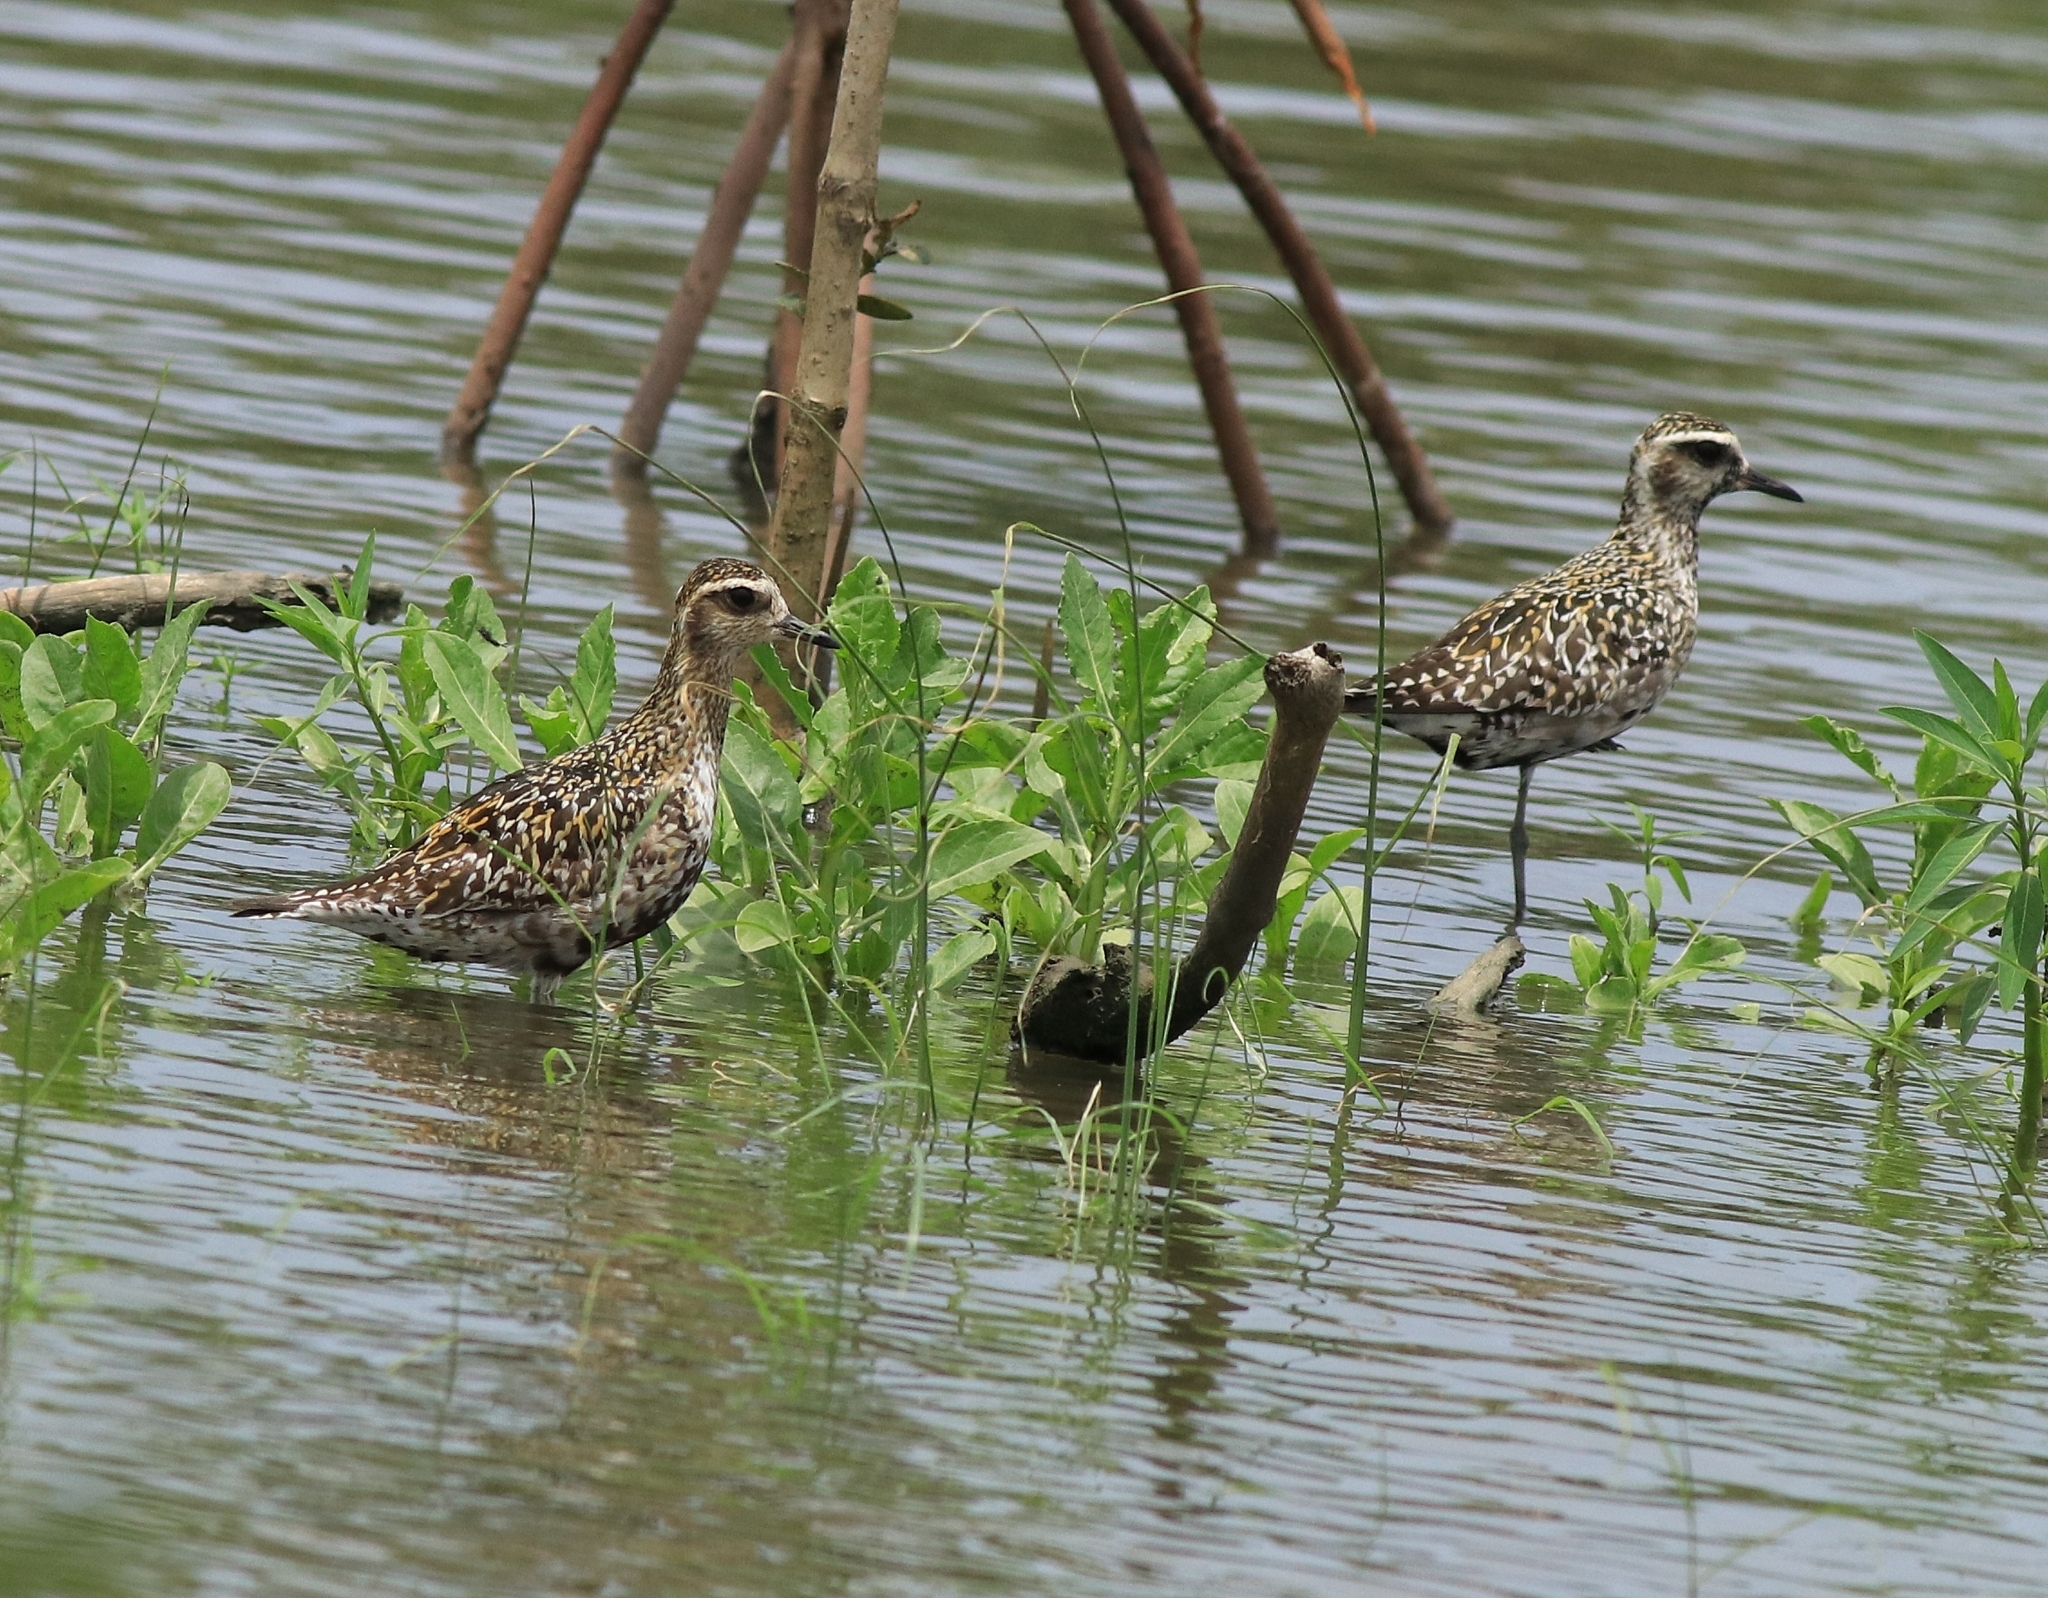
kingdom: Animalia
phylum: Chordata
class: Aves
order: Charadriiformes
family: Charadriidae
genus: Pluvialis
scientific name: Pluvialis fulva
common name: Pacific golden plover
